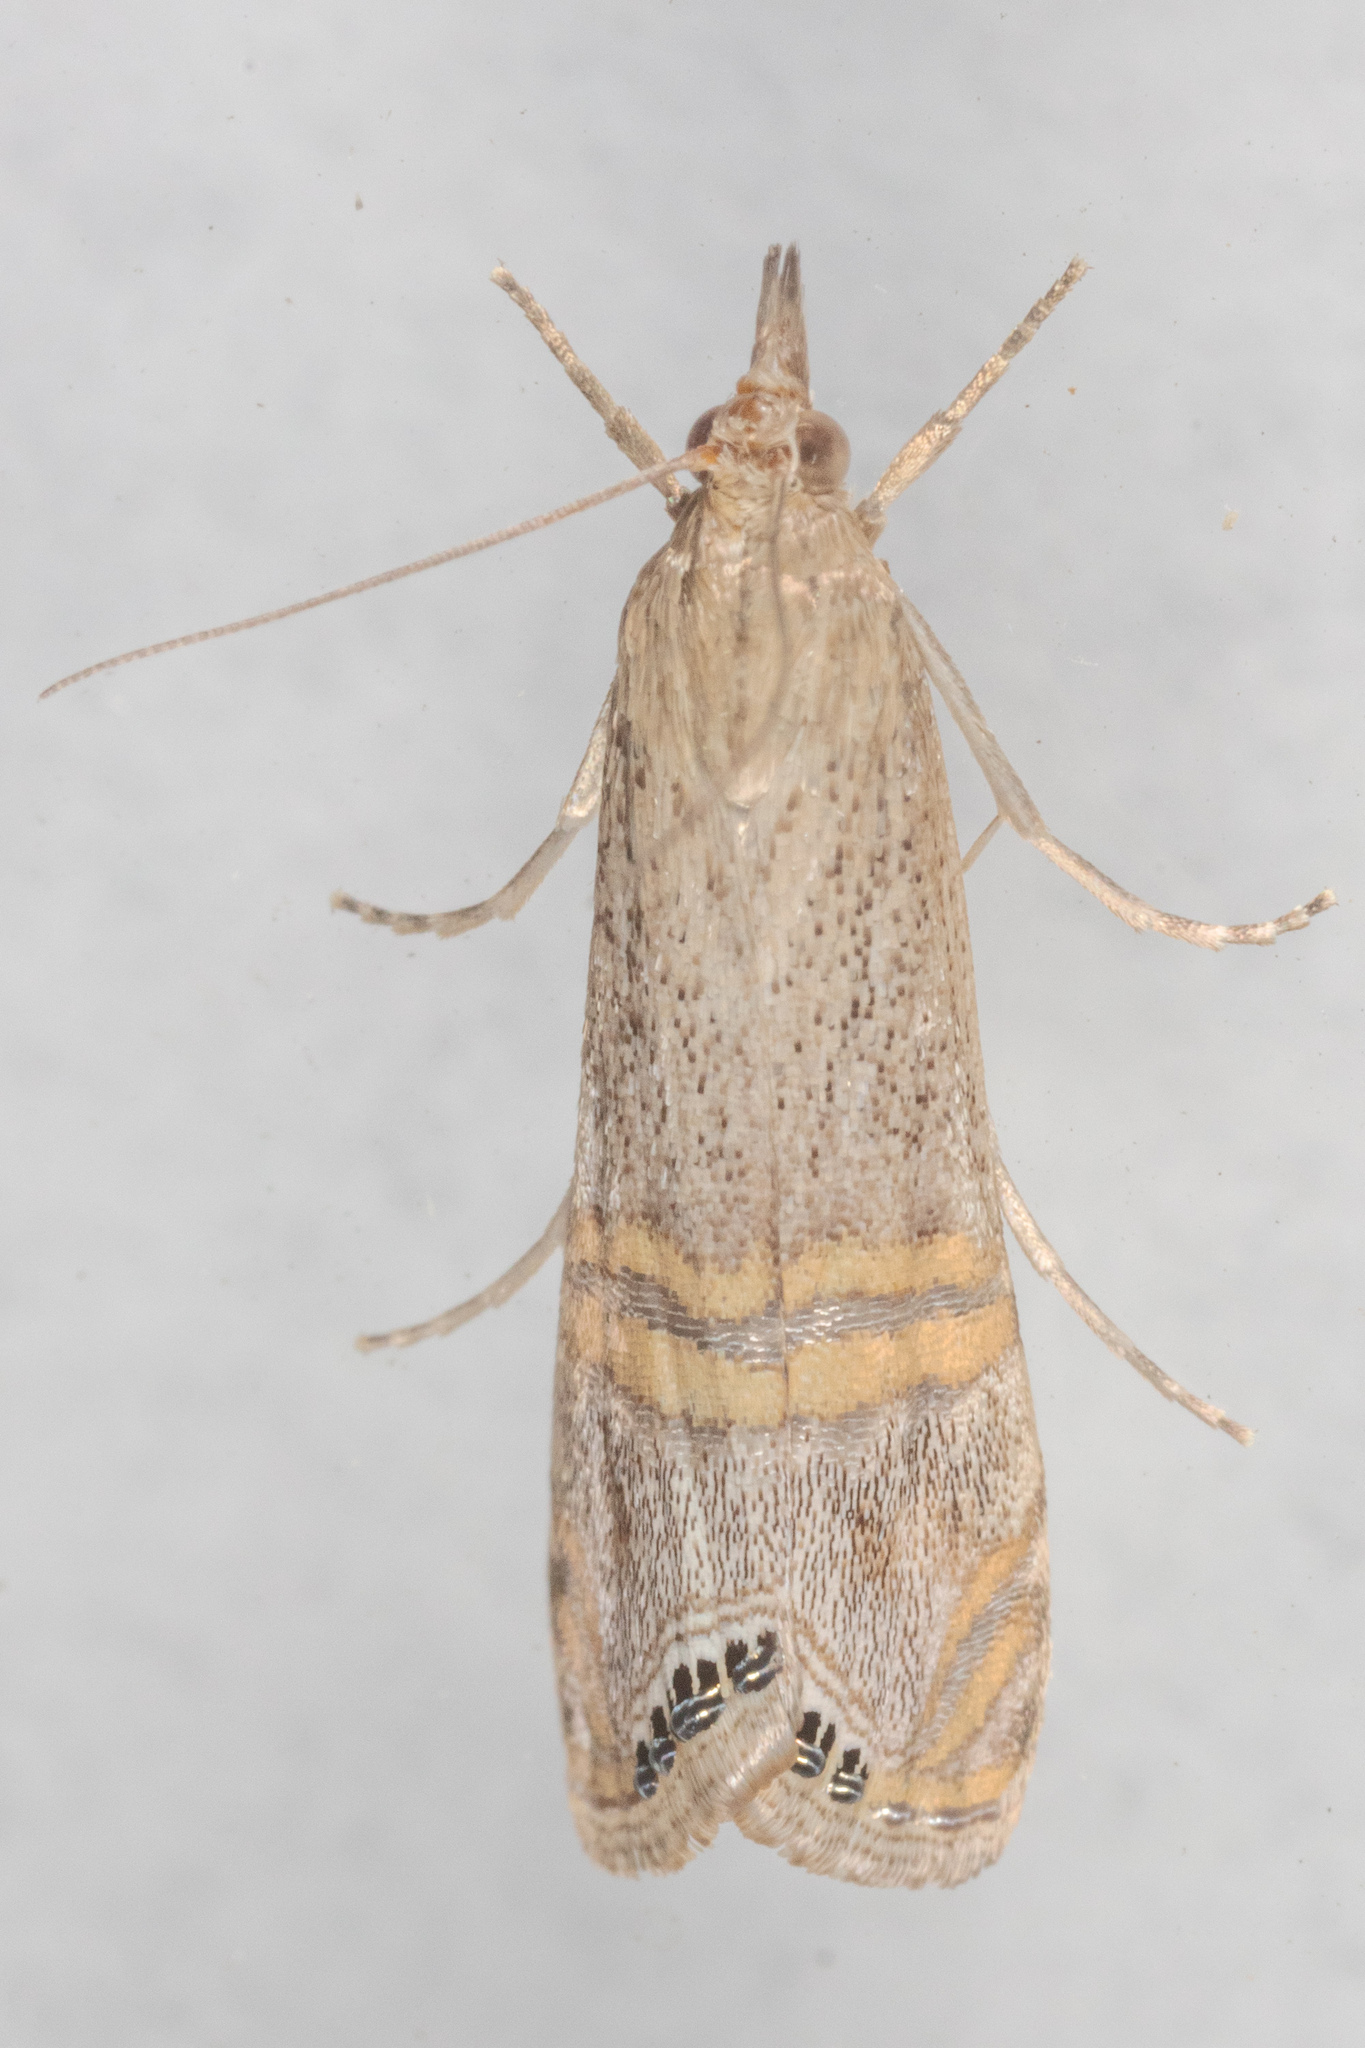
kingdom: Animalia
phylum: Arthropoda
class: Insecta
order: Lepidoptera
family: Crambidae
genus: Euchromius
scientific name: Euchromius ocellea
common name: Necklace veneer moth
